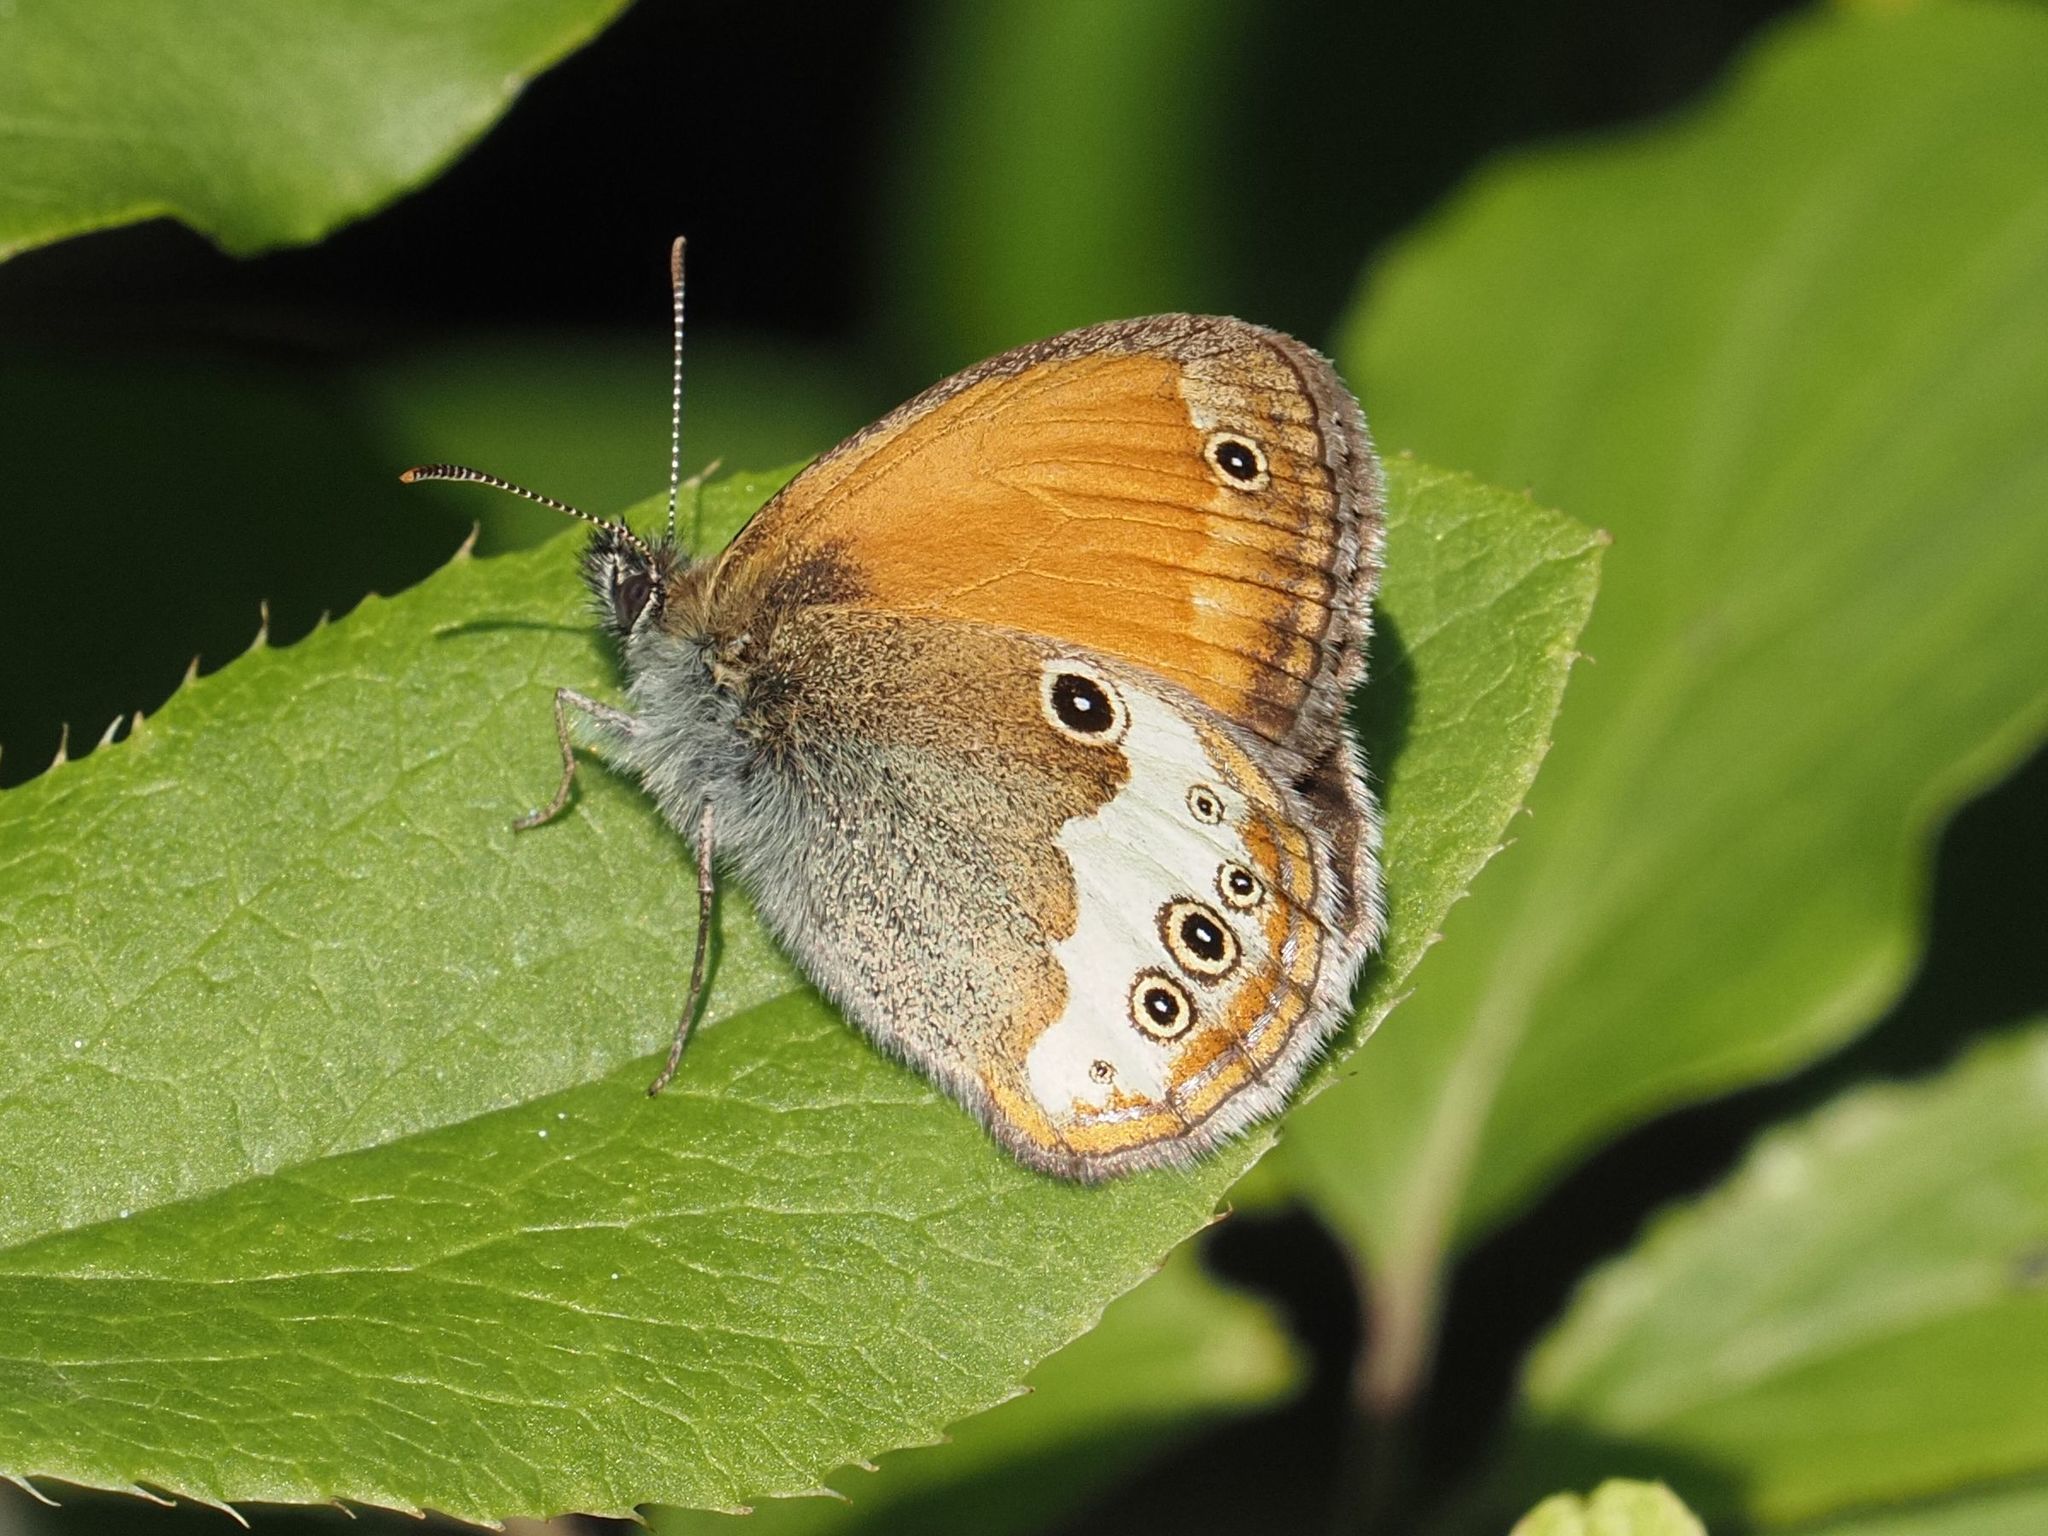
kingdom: Animalia
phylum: Arthropoda
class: Insecta
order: Lepidoptera
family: Nymphalidae
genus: Coenonympha
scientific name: Coenonympha arcania
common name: Pearly heath
